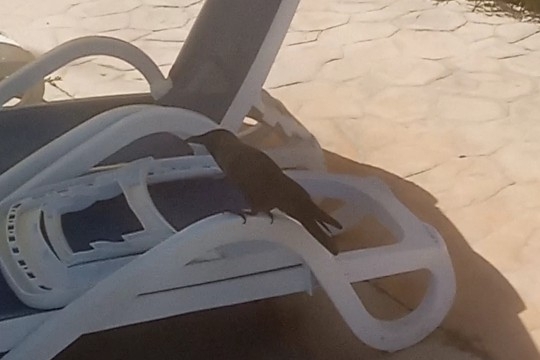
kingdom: Animalia
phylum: Chordata
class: Aves
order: Passeriformes
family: Corvidae
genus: Corvus
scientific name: Corvus splendens
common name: House crow
